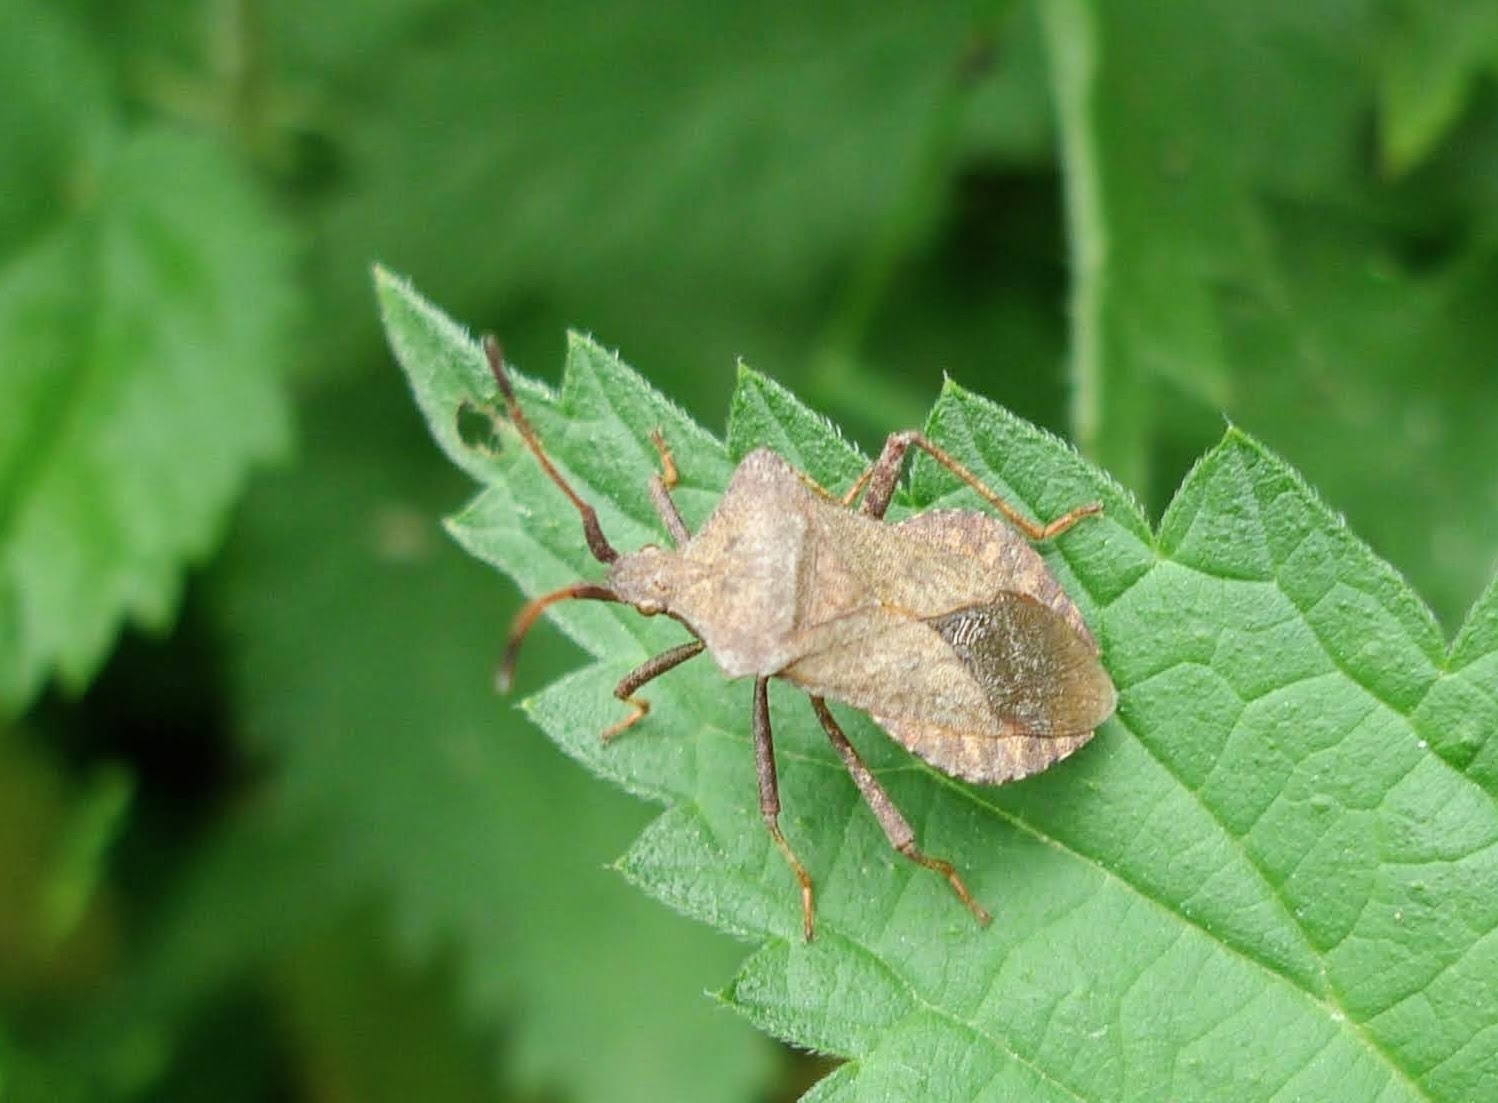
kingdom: Animalia
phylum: Arthropoda
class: Insecta
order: Hemiptera
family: Coreidae
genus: Coreus
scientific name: Coreus marginatus
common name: Dock bug
